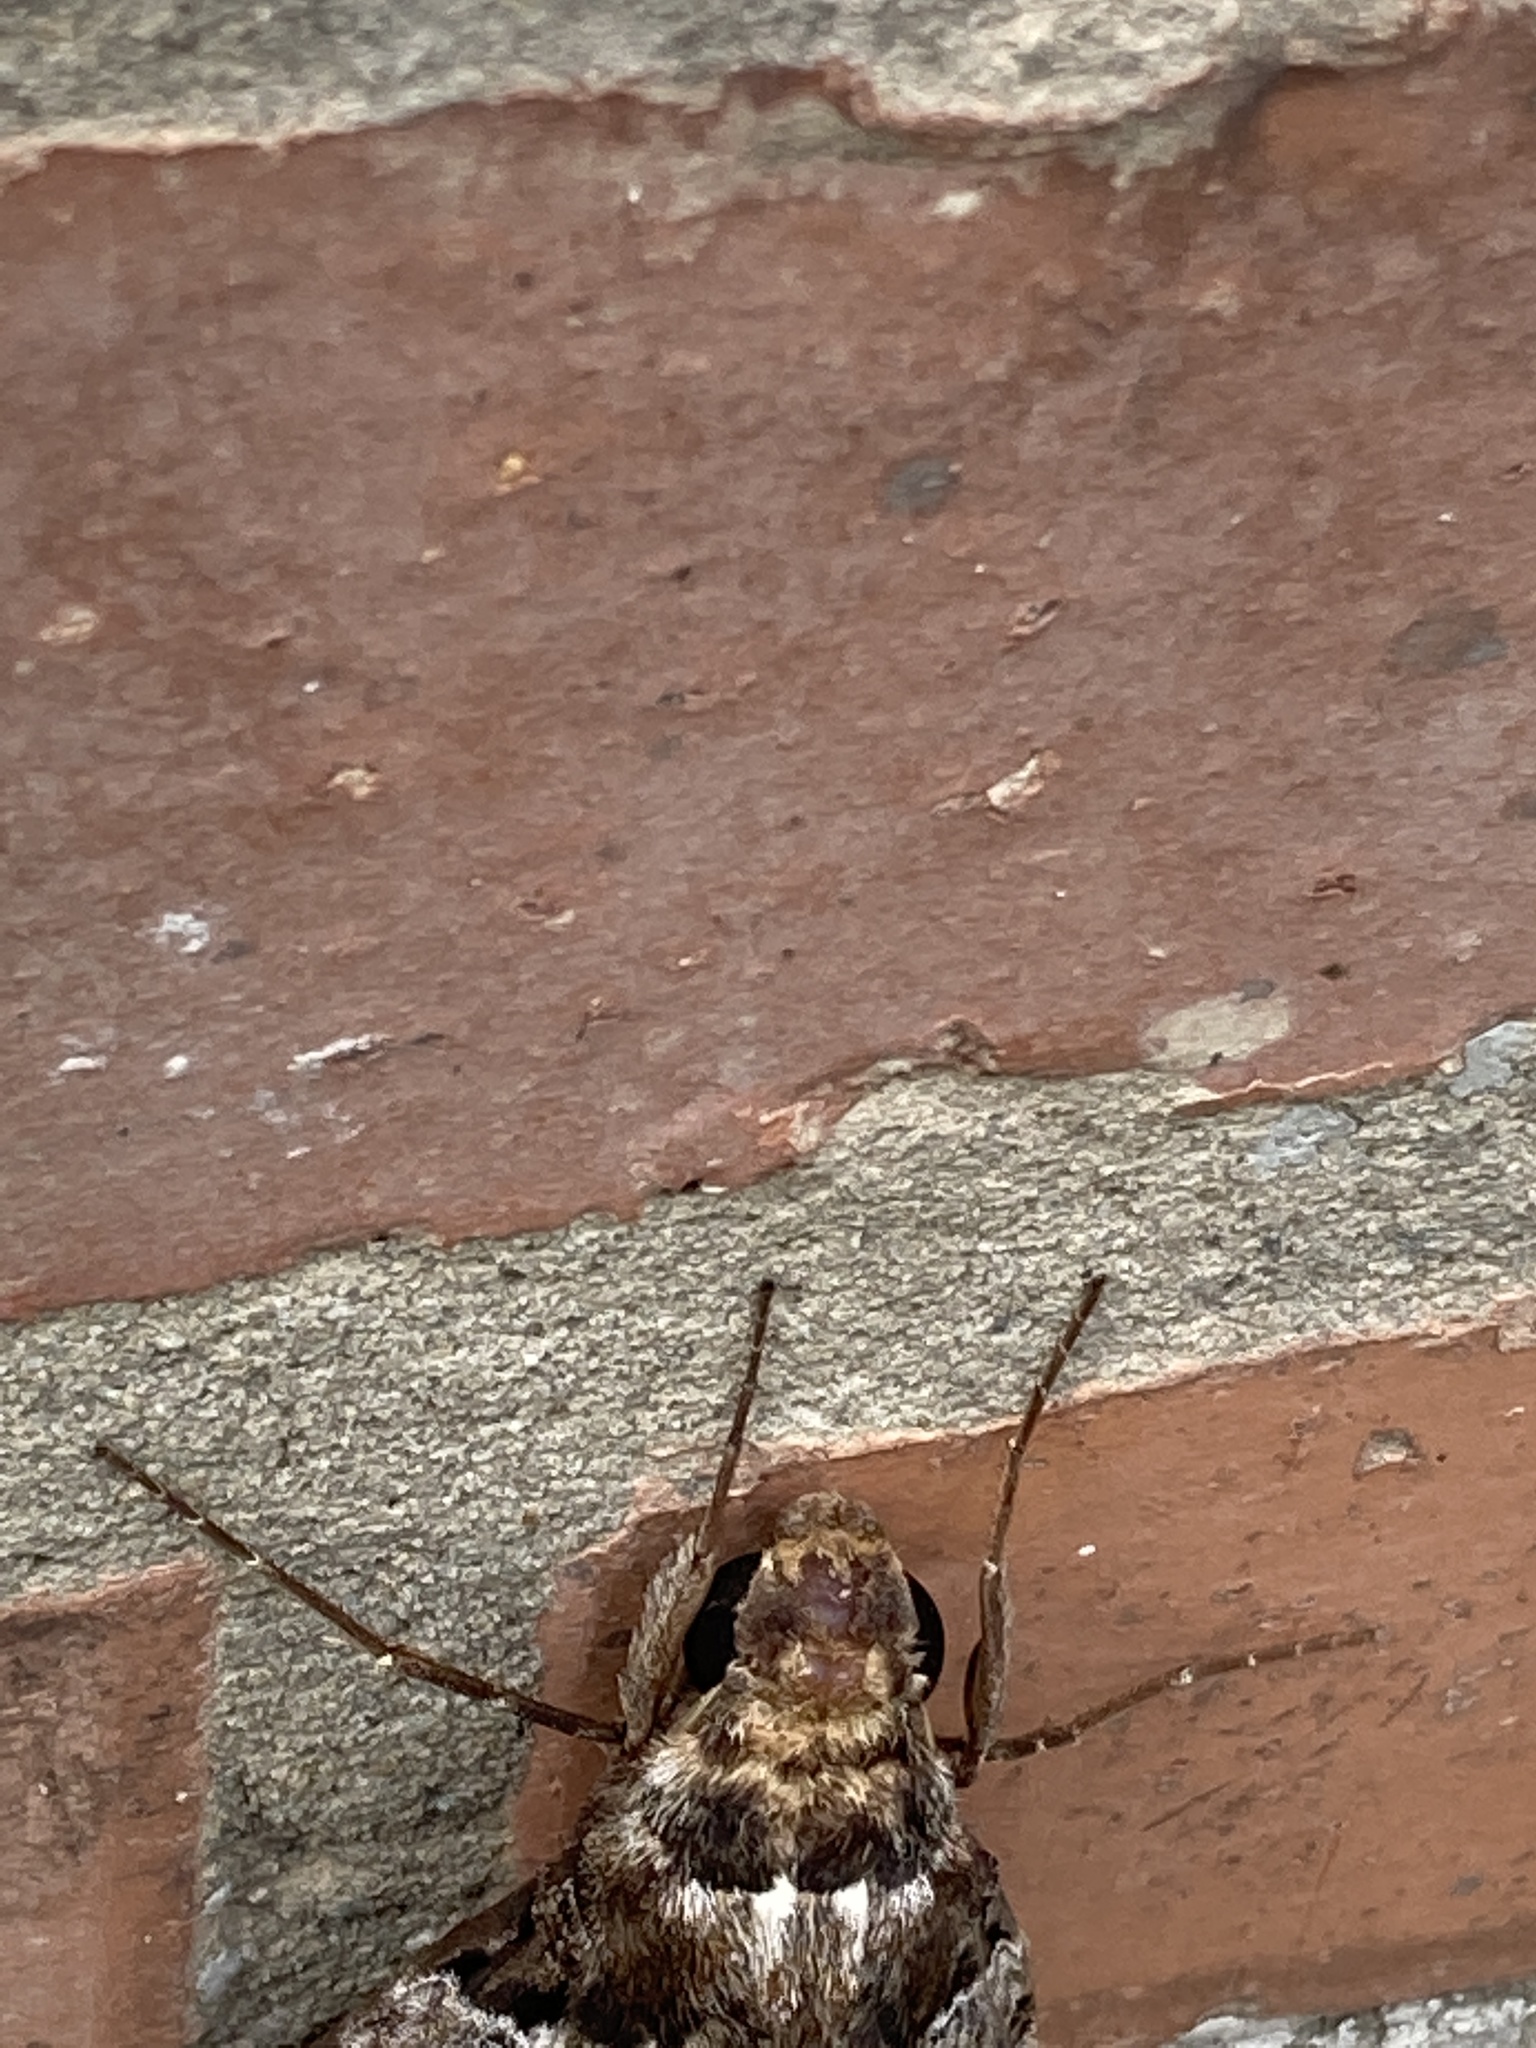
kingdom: Animalia
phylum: Arthropoda
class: Insecta
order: Lepidoptera
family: Sphingidae
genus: Pseudosphinx
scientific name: Pseudosphinx tetrio
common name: Tetrio sphinx
